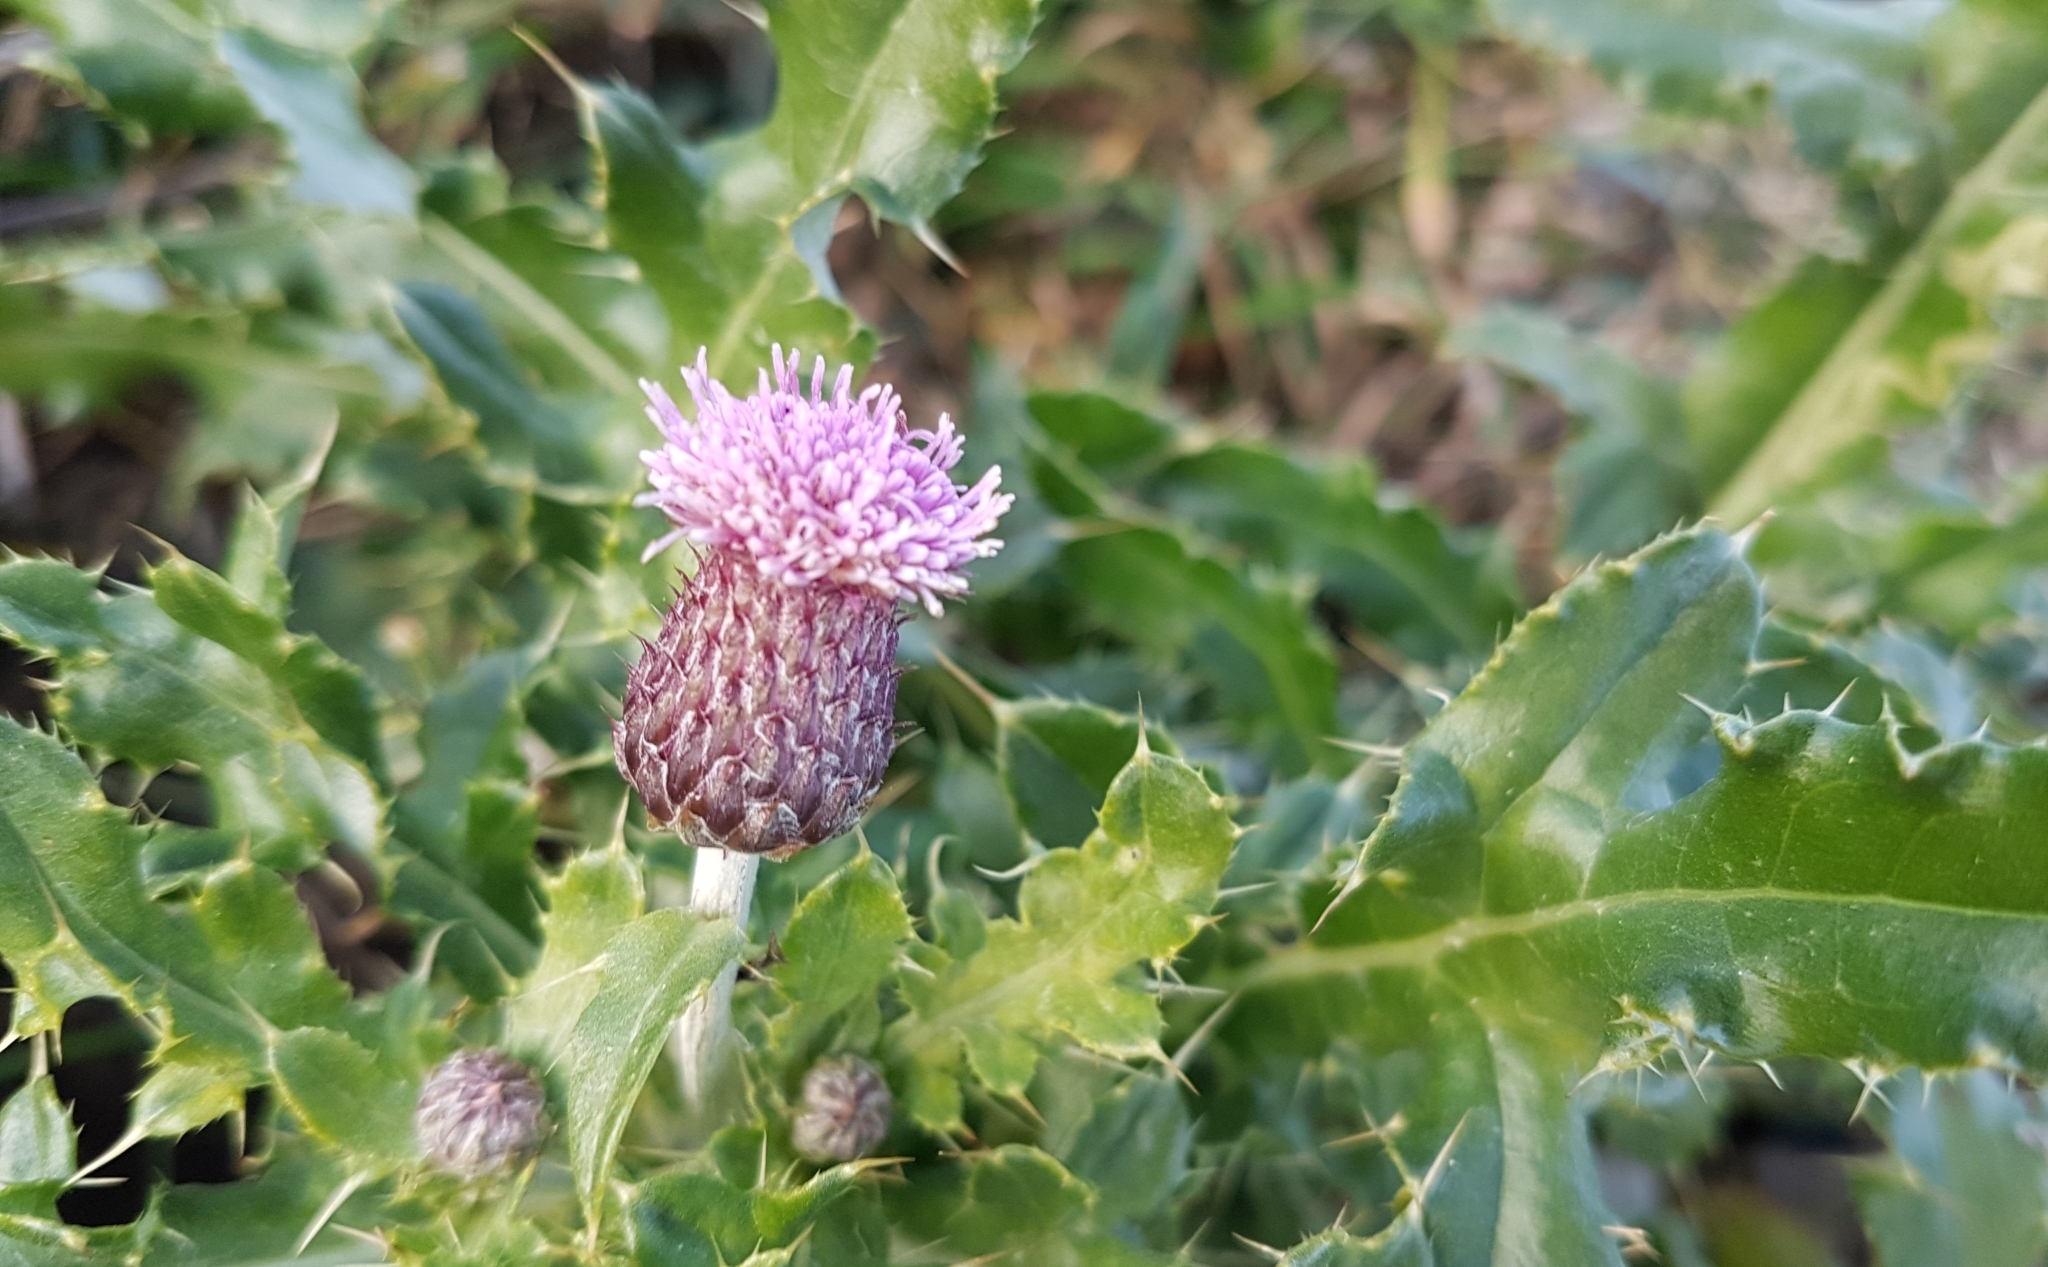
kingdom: Plantae
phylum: Tracheophyta
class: Magnoliopsida
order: Asterales
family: Asteraceae
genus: Cirsium
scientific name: Cirsium arvense
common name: Creeping thistle
